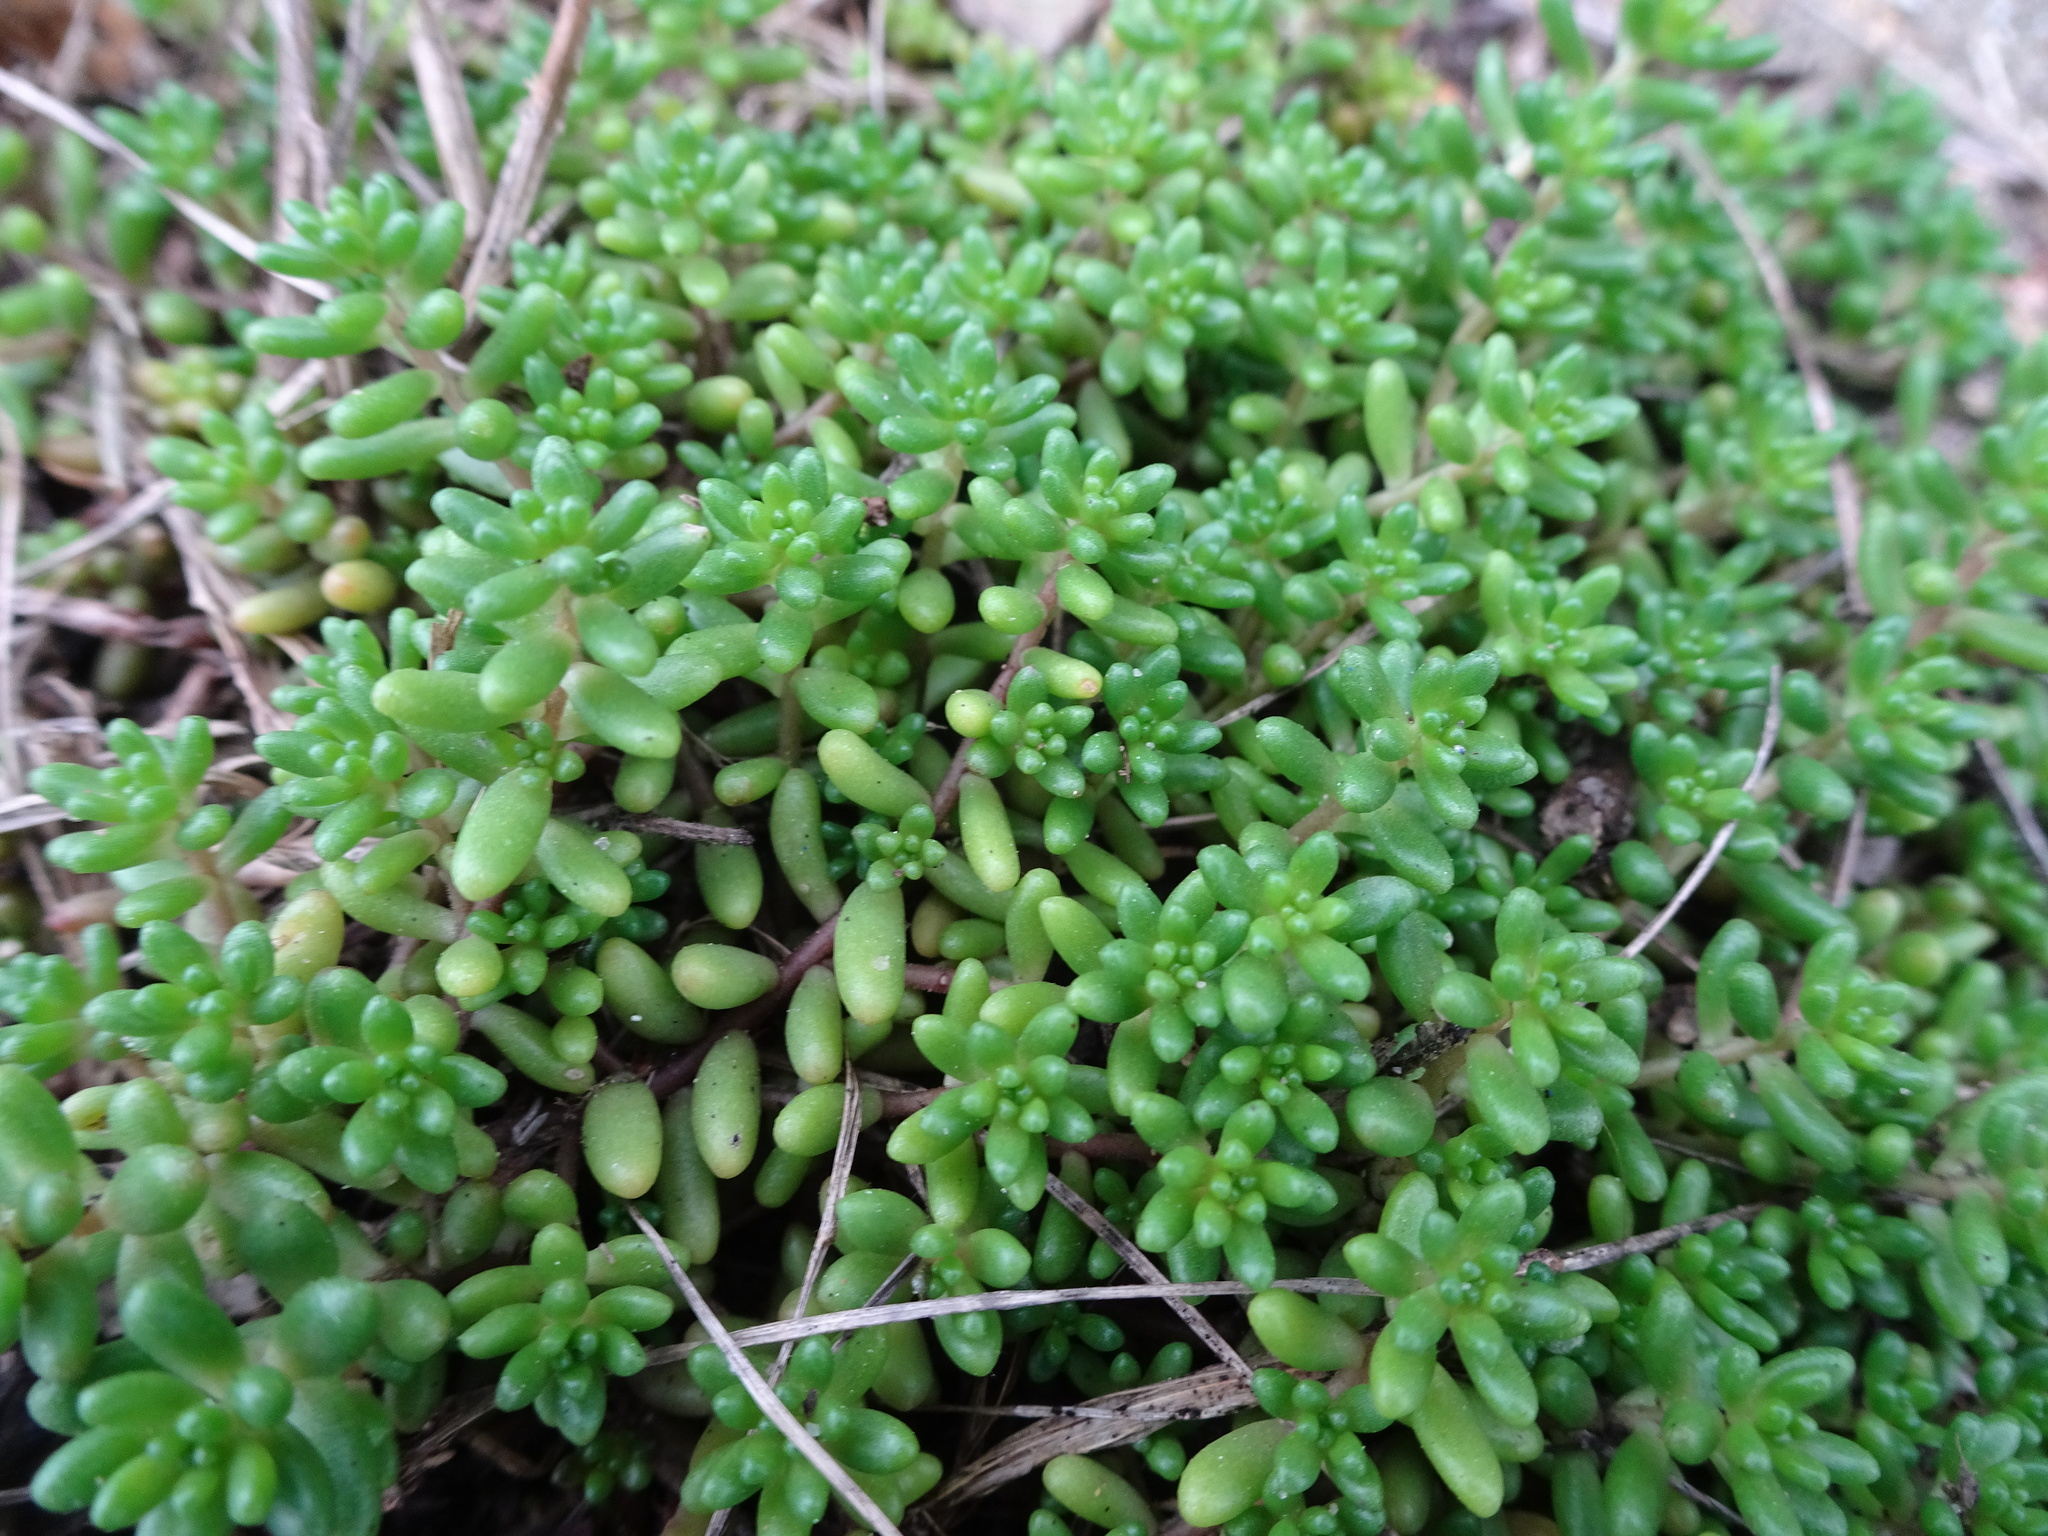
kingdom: Plantae
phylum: Tracheophyta
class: Magnoliopsida
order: Saxifragales
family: Crassulaceae
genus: Sedum
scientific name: Sedum album
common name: White stonecrop
